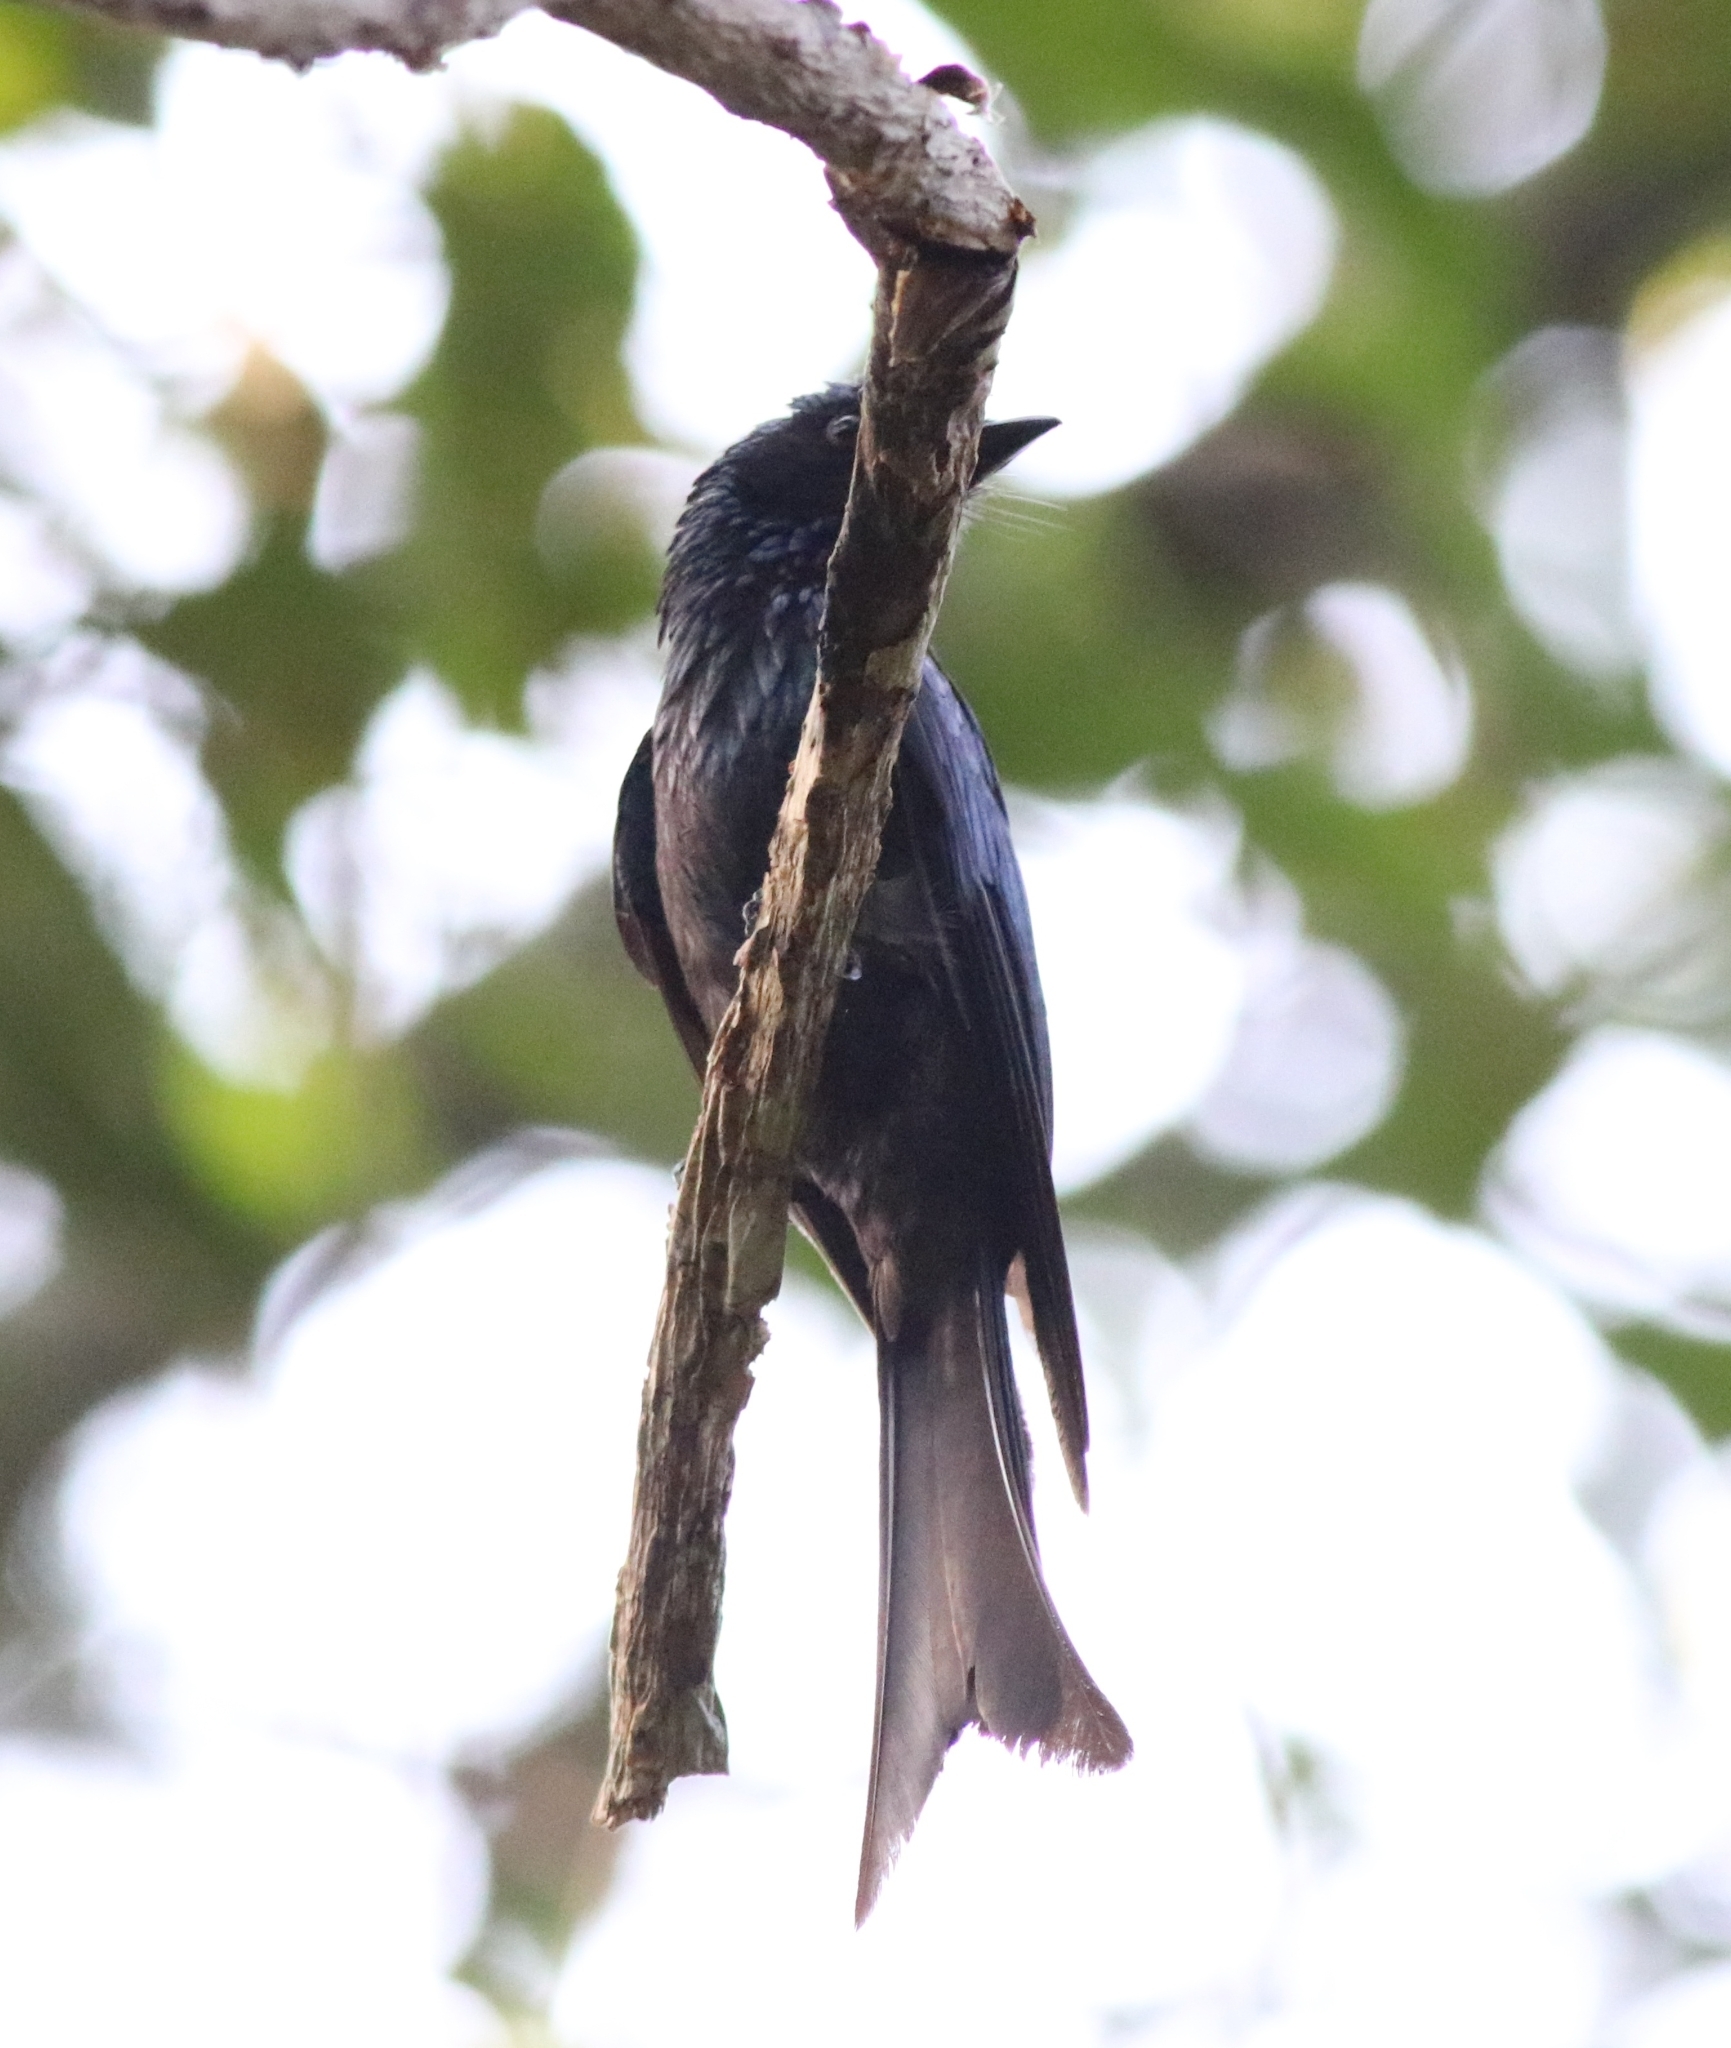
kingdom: Animalia
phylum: Chordata
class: Aves
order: Passeriformes
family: Dicruridae
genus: Dicrurus
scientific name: Dicrurus aeneus
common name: Bronzed drongo
